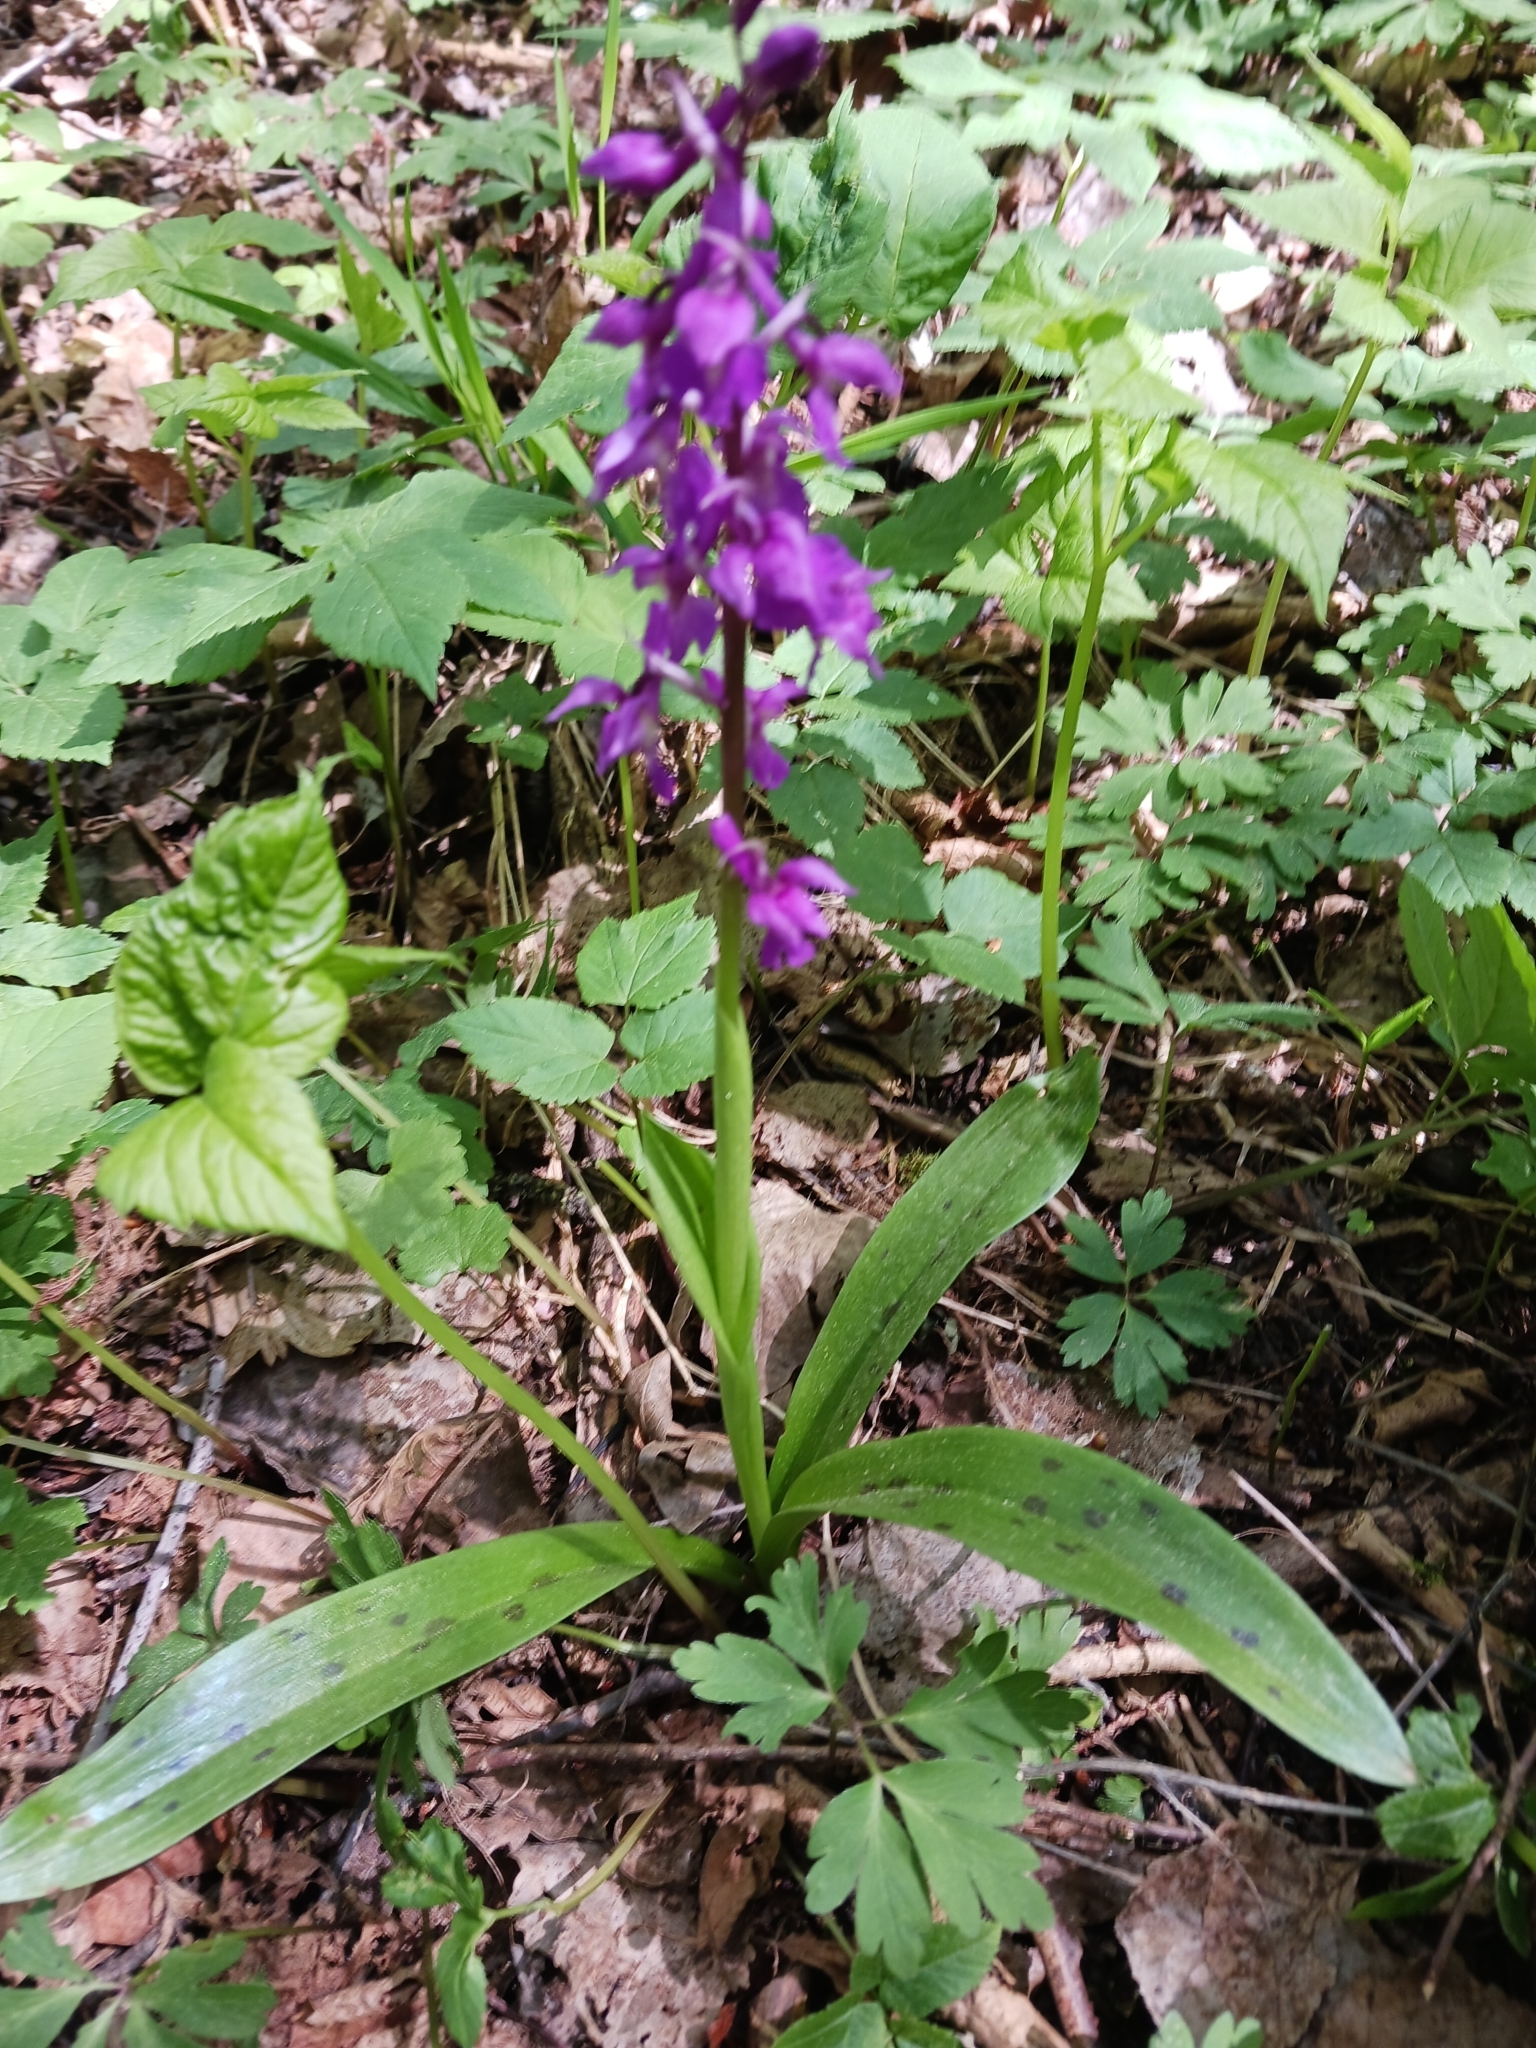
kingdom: Plantae
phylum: Tracheophyta
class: Liliopsida
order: Asparagales
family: Orchidaceae
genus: Orchis
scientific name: Orchis mascula
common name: Early-purple orchid
